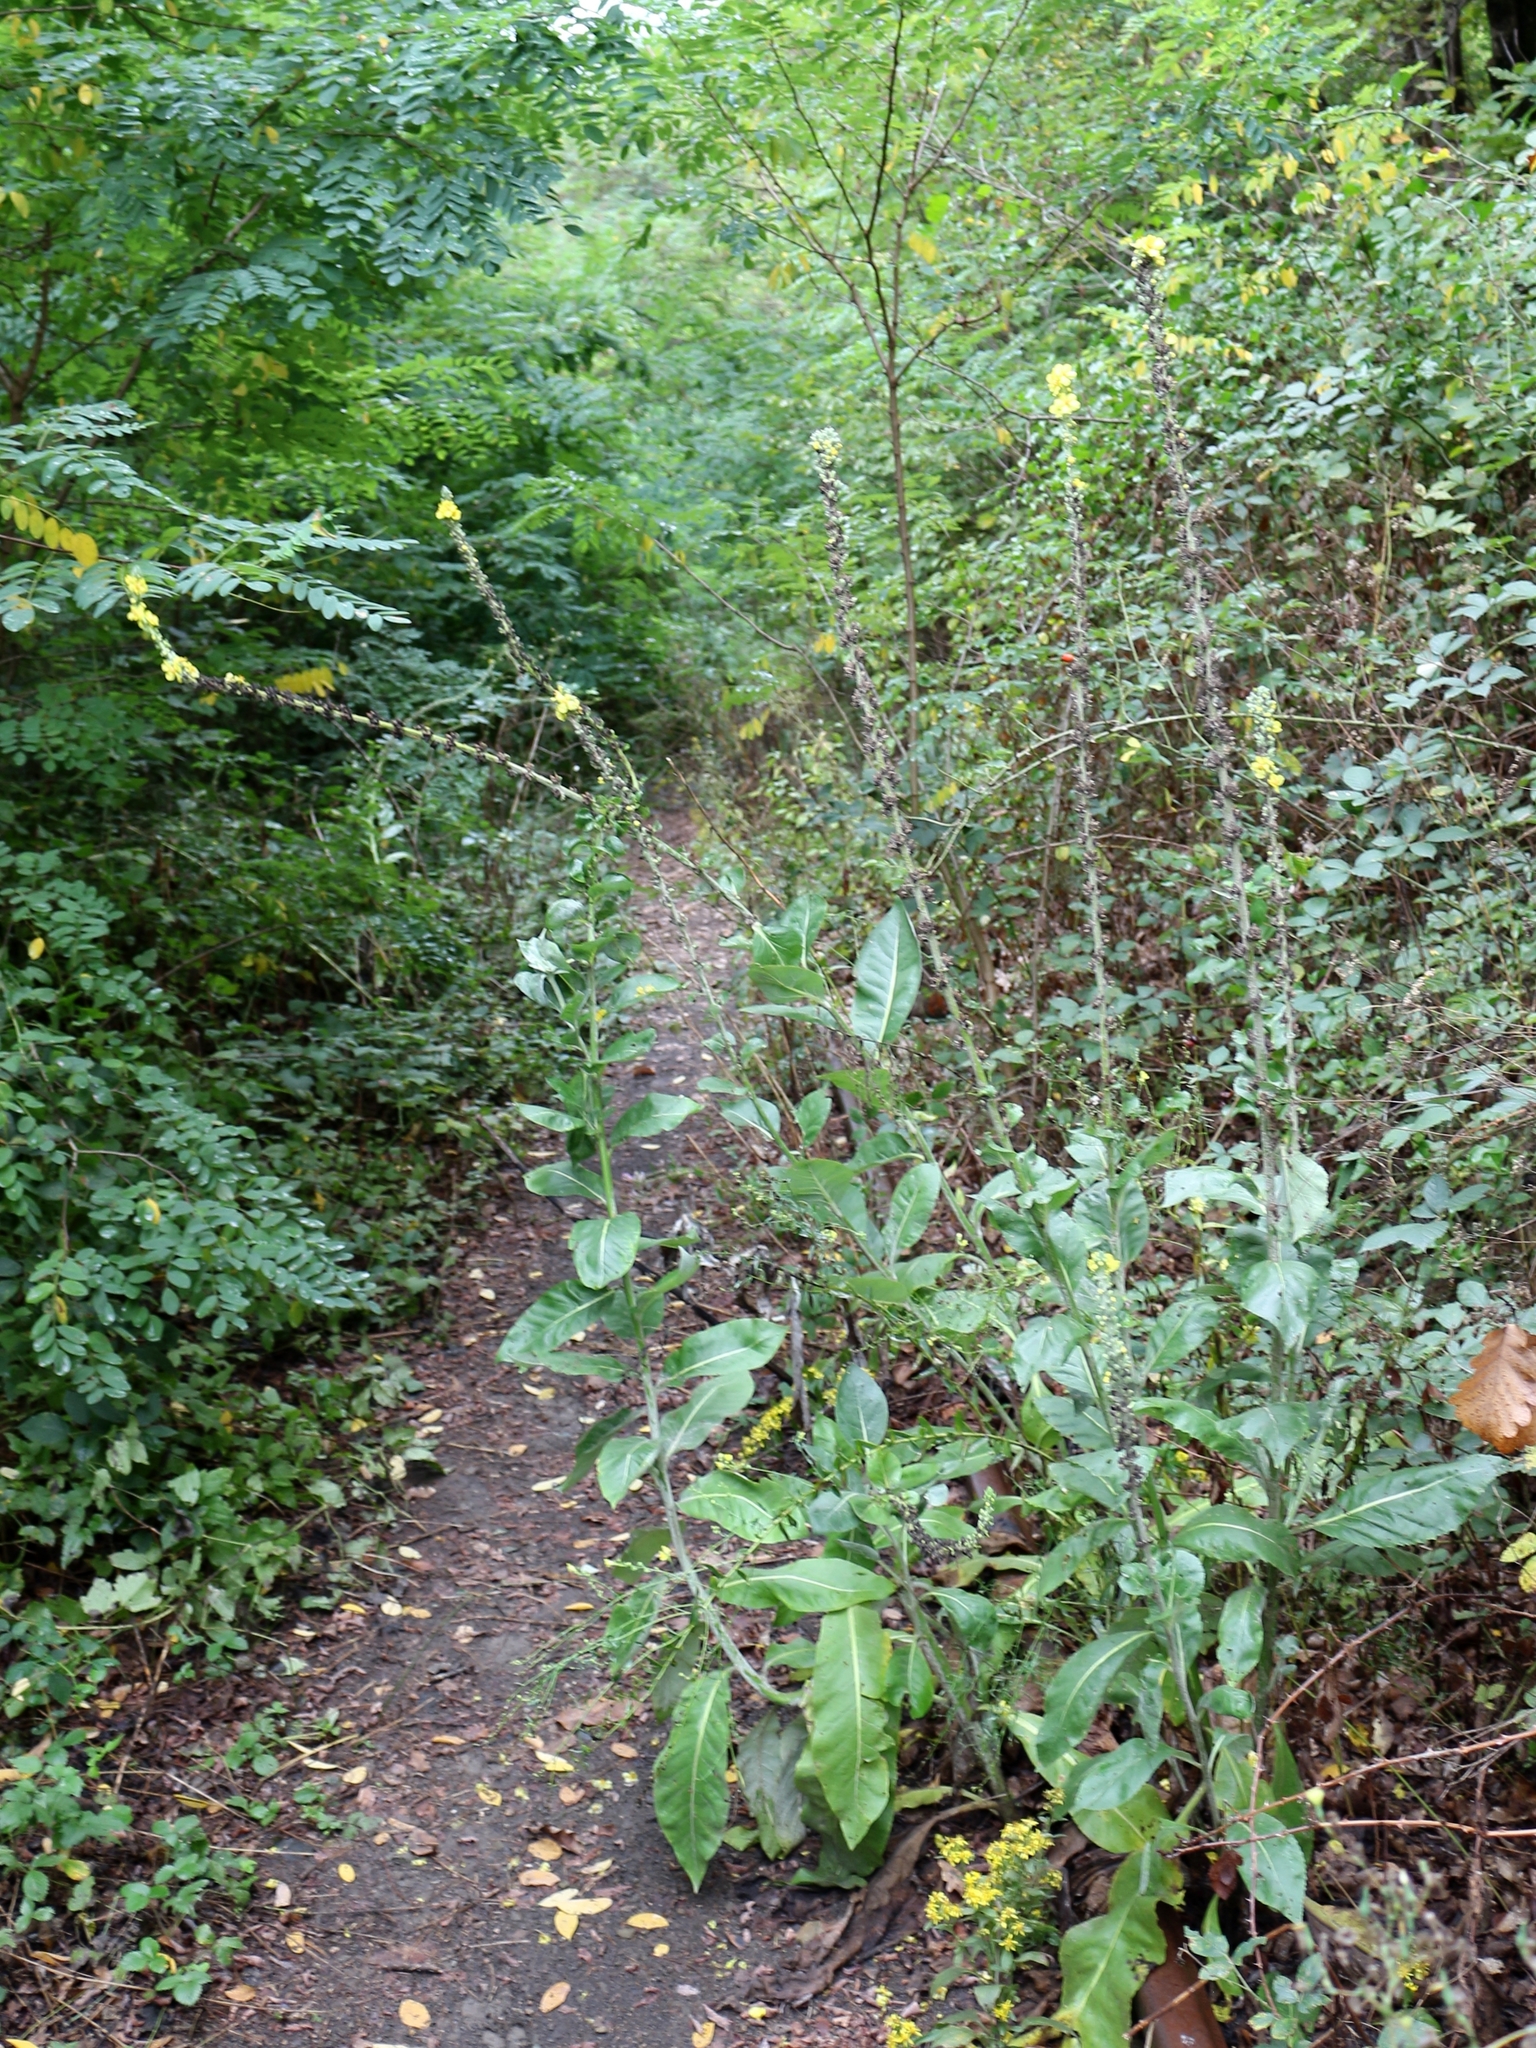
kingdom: Plantae
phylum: Tracheophyta
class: Magnoliopsida
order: Lamiales
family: Scrophulariaceae
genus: Verbascum
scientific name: Verbascum gnaphalodes
